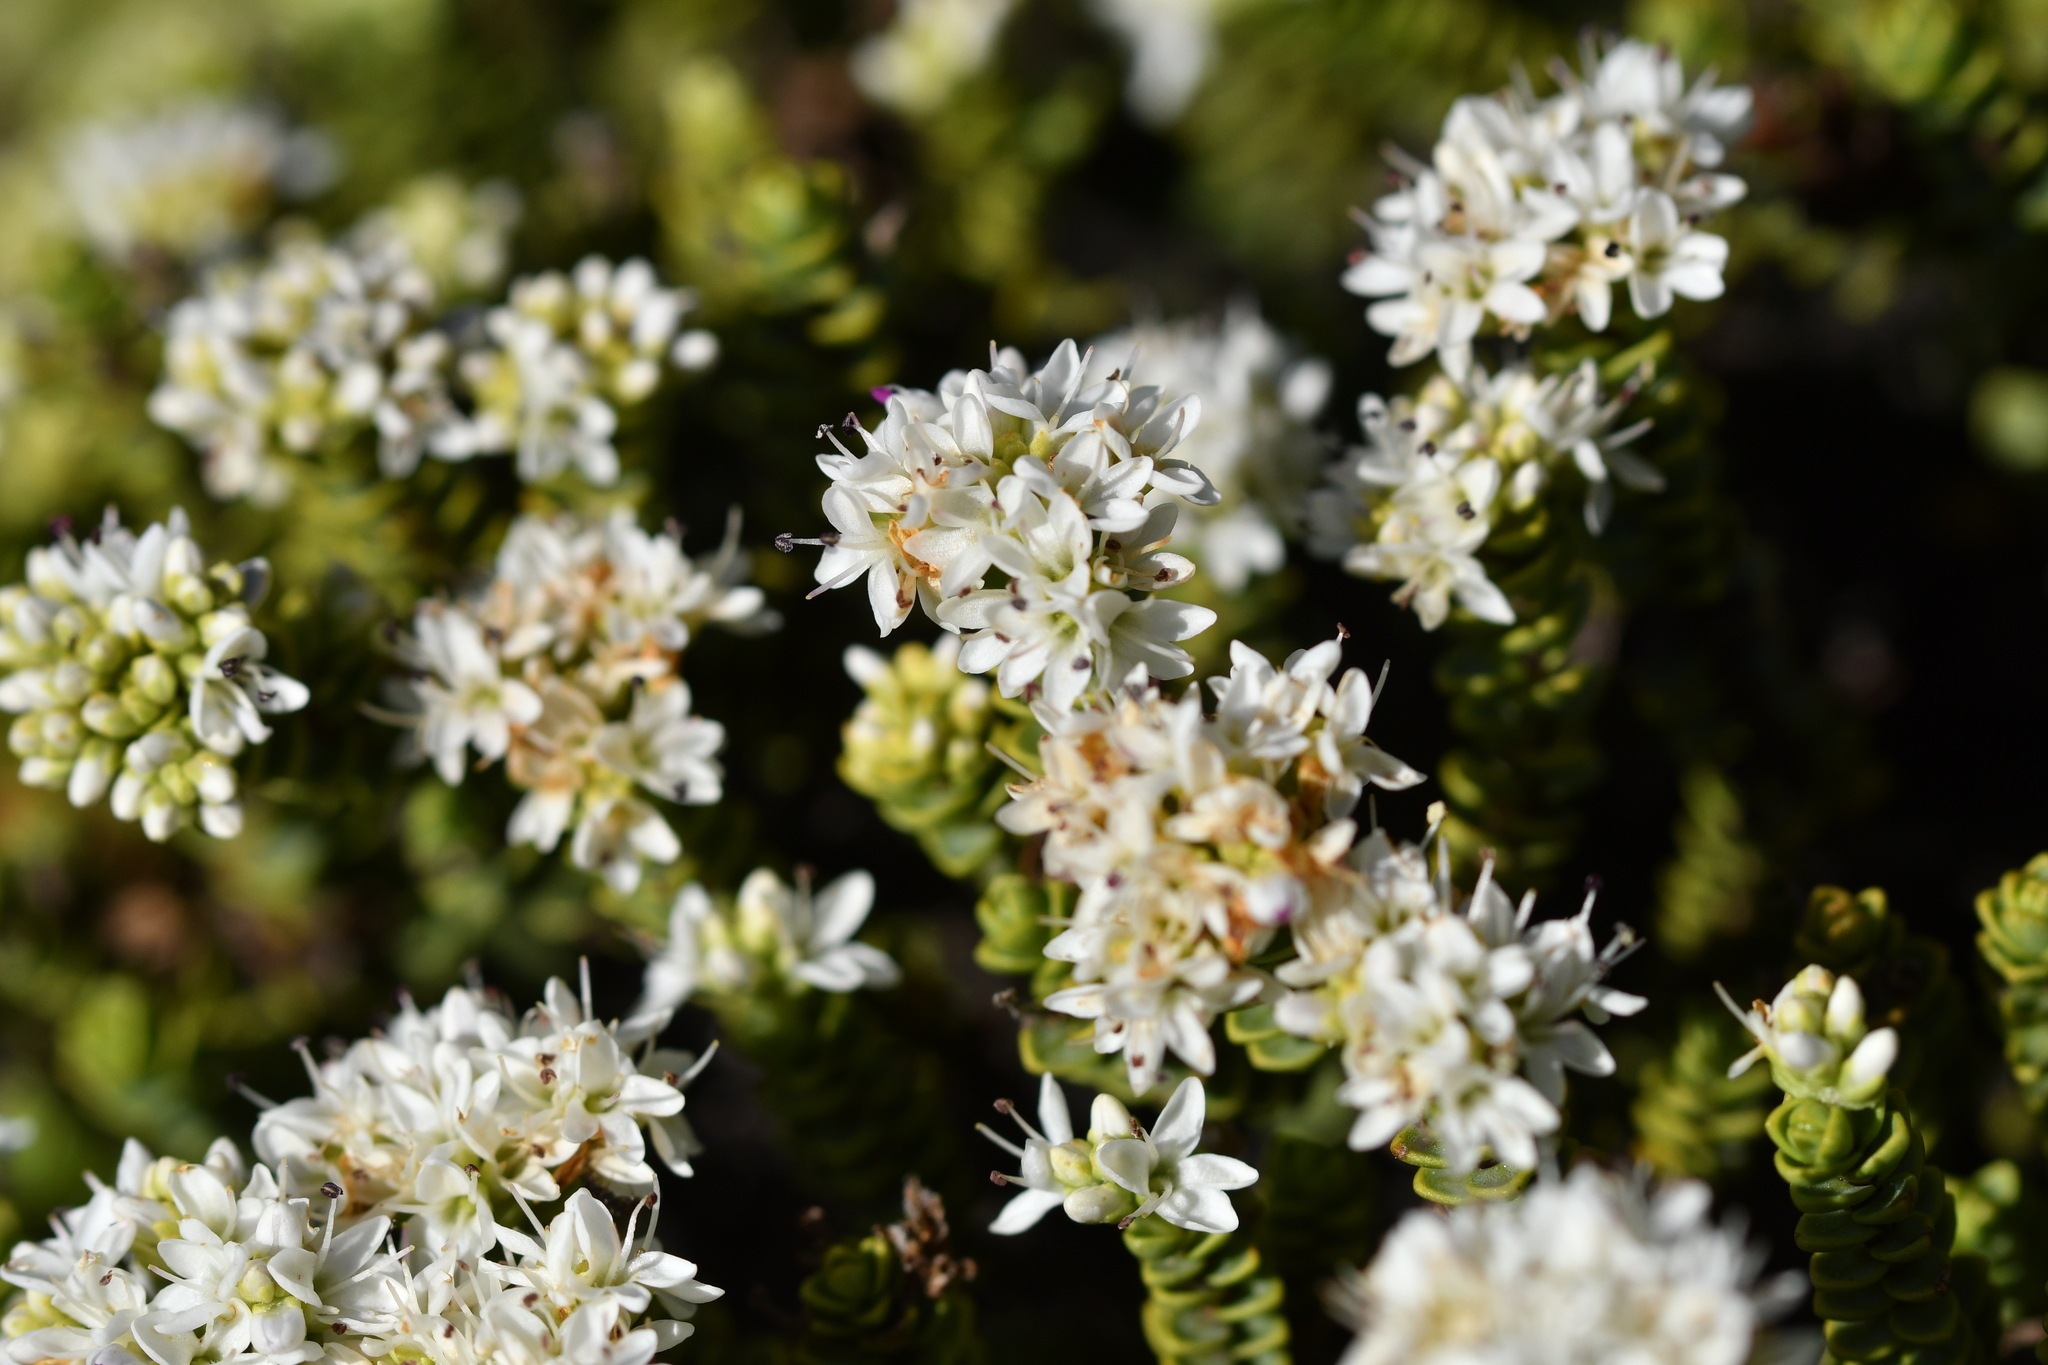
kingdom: Plantae
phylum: Tracheophyta
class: Magnoliopsida
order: Lamiales
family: Plantaginaceae
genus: Veronica
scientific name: Veronica buchananii
